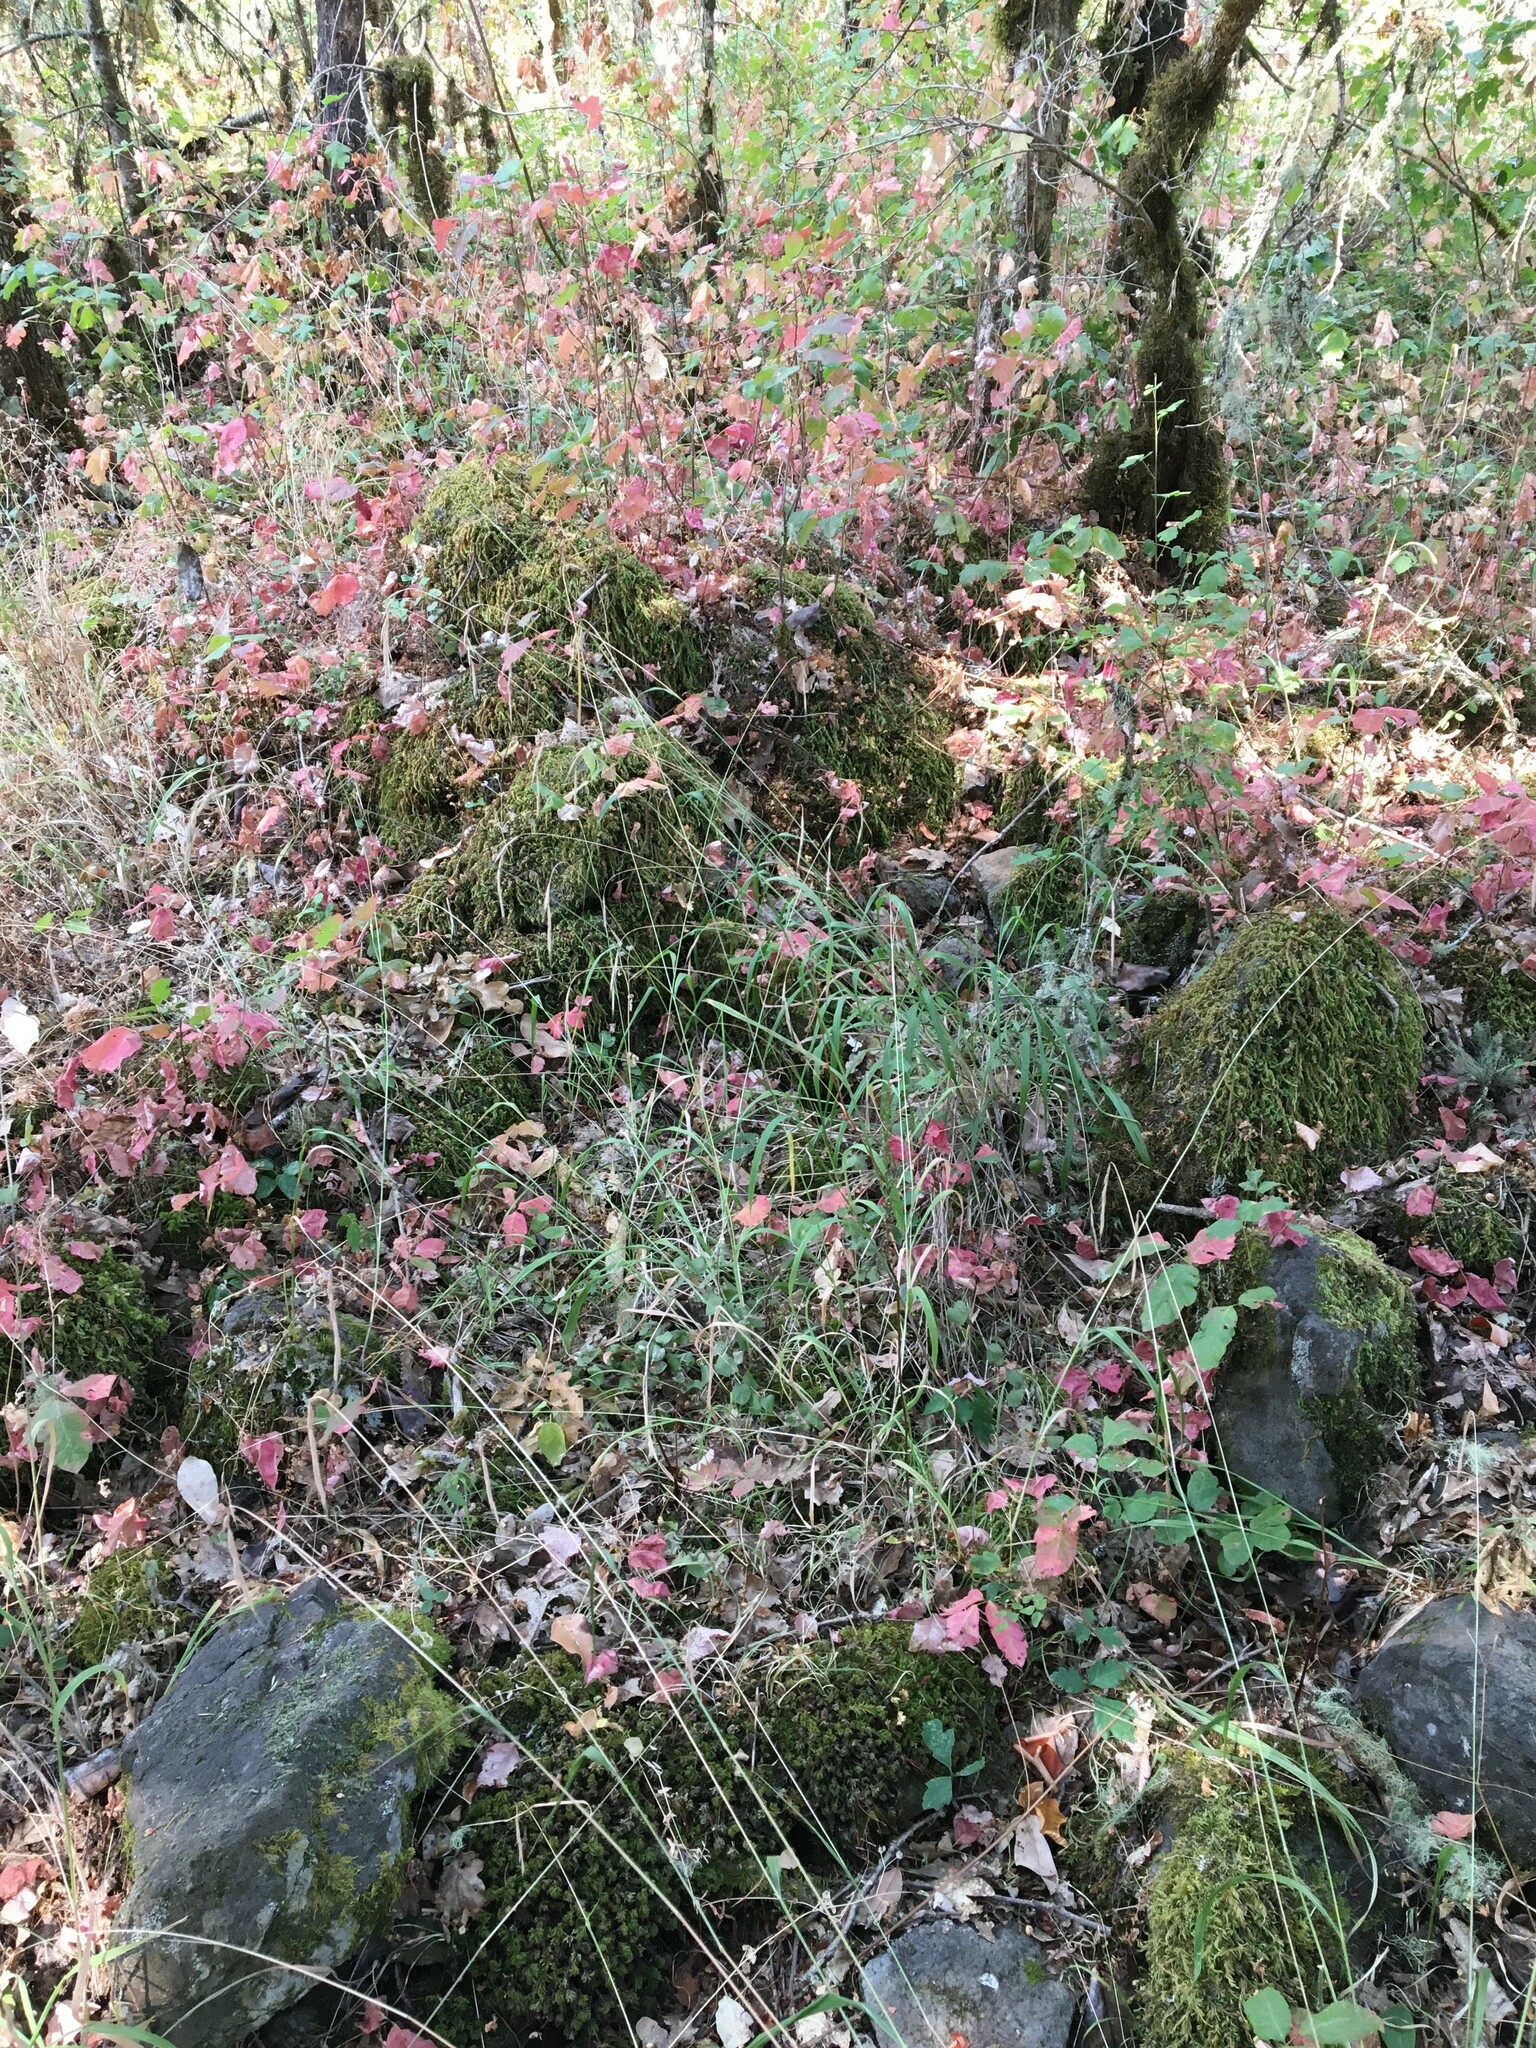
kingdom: Plantae
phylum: Tracheophyta
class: Liliopsida
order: Asparagales
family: Orchidaceae
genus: Platanthera
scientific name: Platanthera transversa
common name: Royal rein orchid
